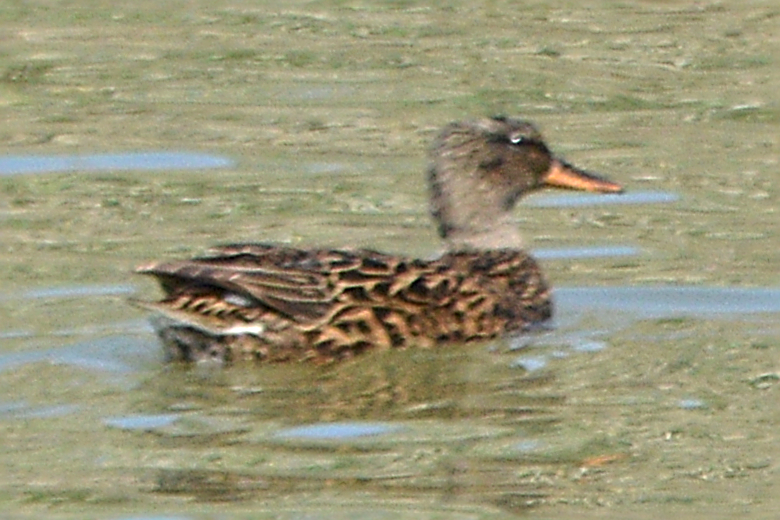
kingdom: Animalia
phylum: Chordata
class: Aves
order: Anseriformes
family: Anatidae
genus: Mareca
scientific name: Mareca strepera
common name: Gadwall
